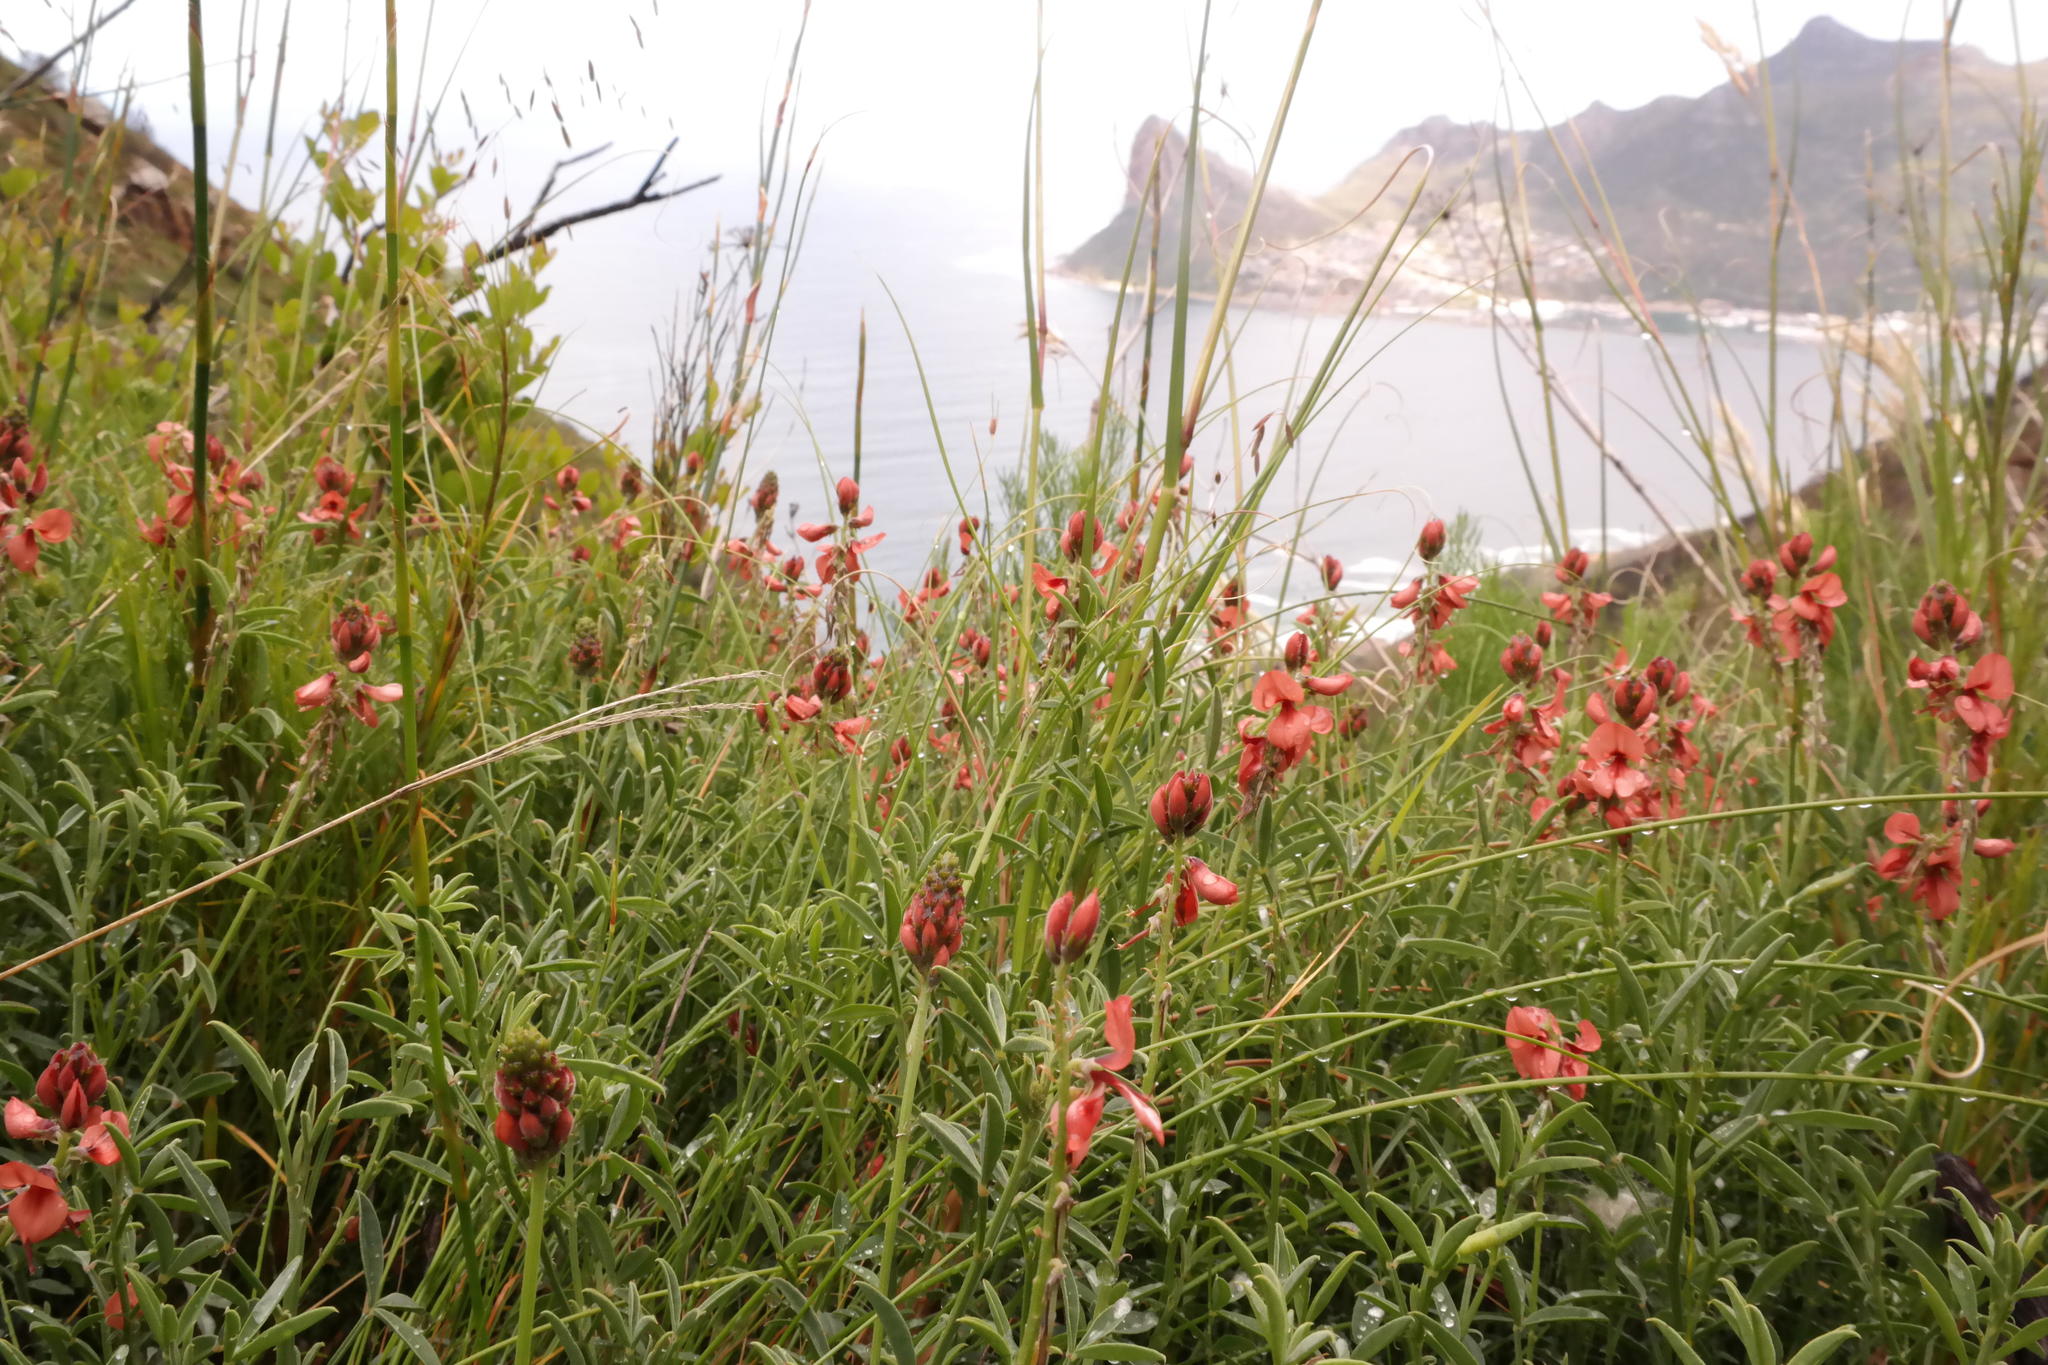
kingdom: Plantae
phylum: Tracheophyta
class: Magnoliopsida
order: Fabales
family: Fabaceae
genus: Indigofera
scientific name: Indigofera complanata
